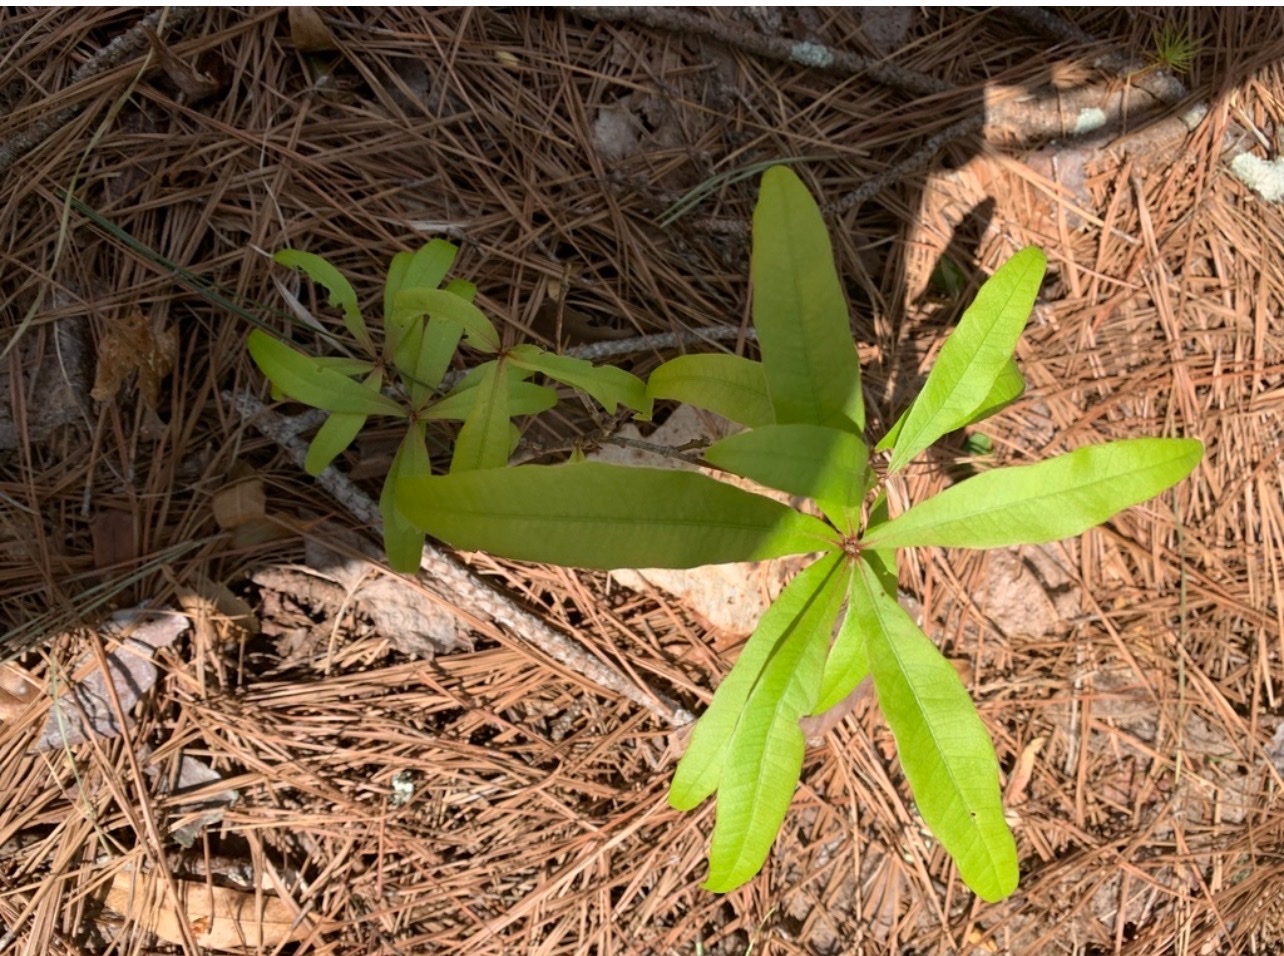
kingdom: Plantae
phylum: Tracheophyta
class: Magnoliopsida
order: Fagales
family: Fagaceae
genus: Quercus
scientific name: Quercus phellos
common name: Willow oak
